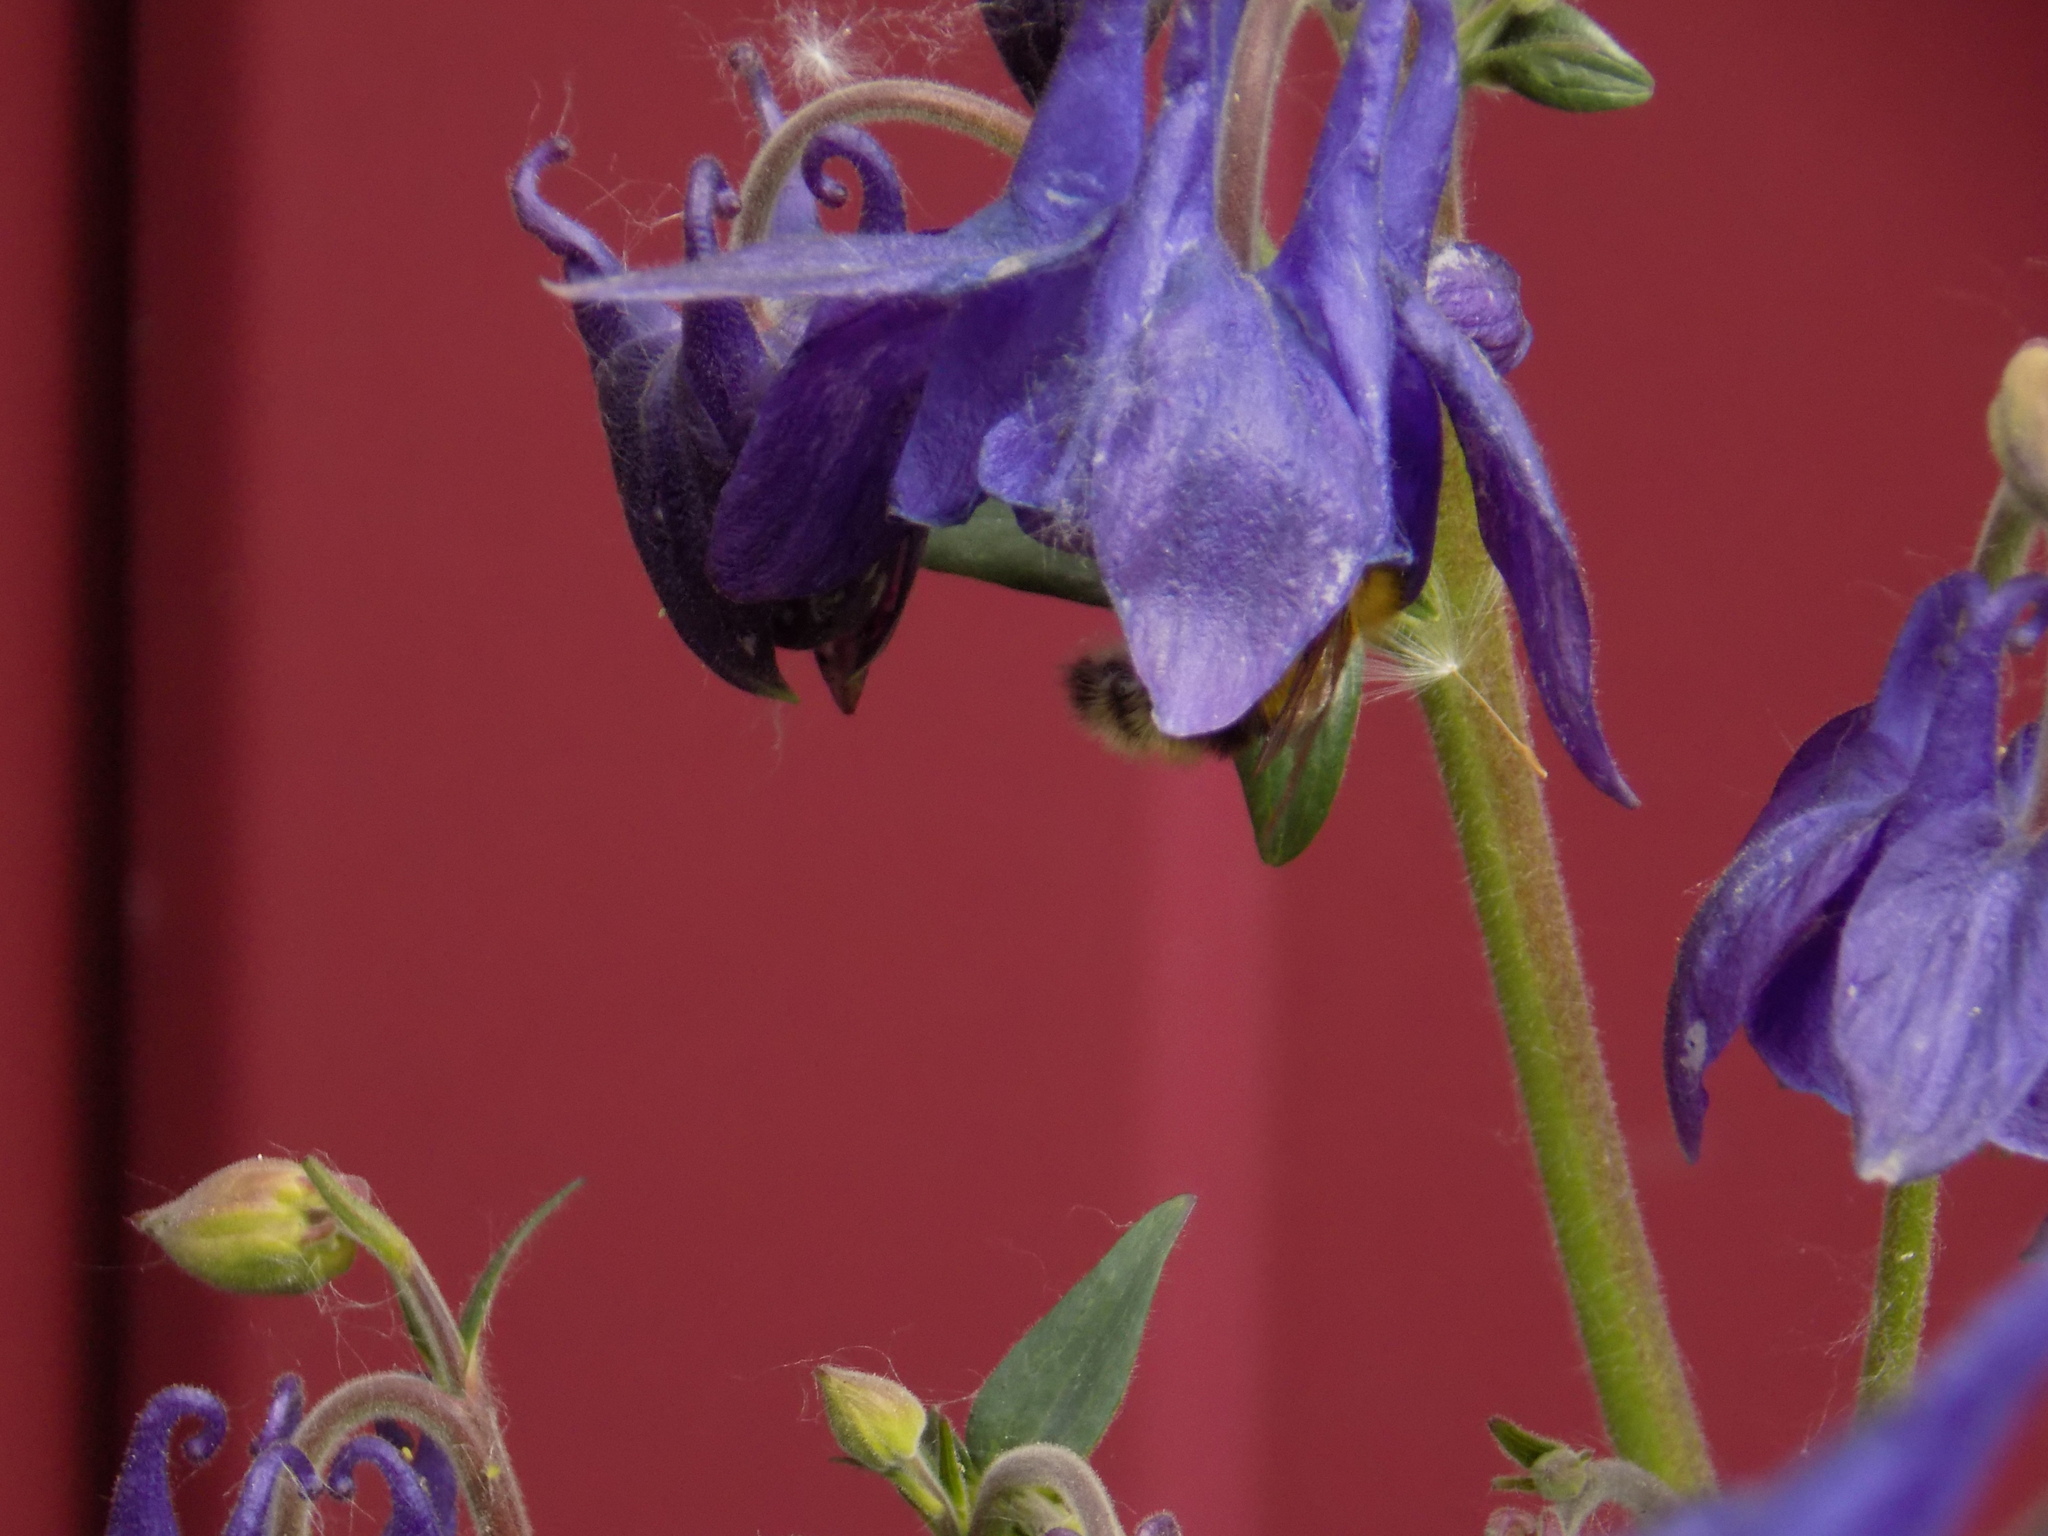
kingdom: Animalia
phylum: Arthropoda
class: Insecta
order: Hymenoptera
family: Apidae
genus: Bombus
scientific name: Bombus saltuarius
